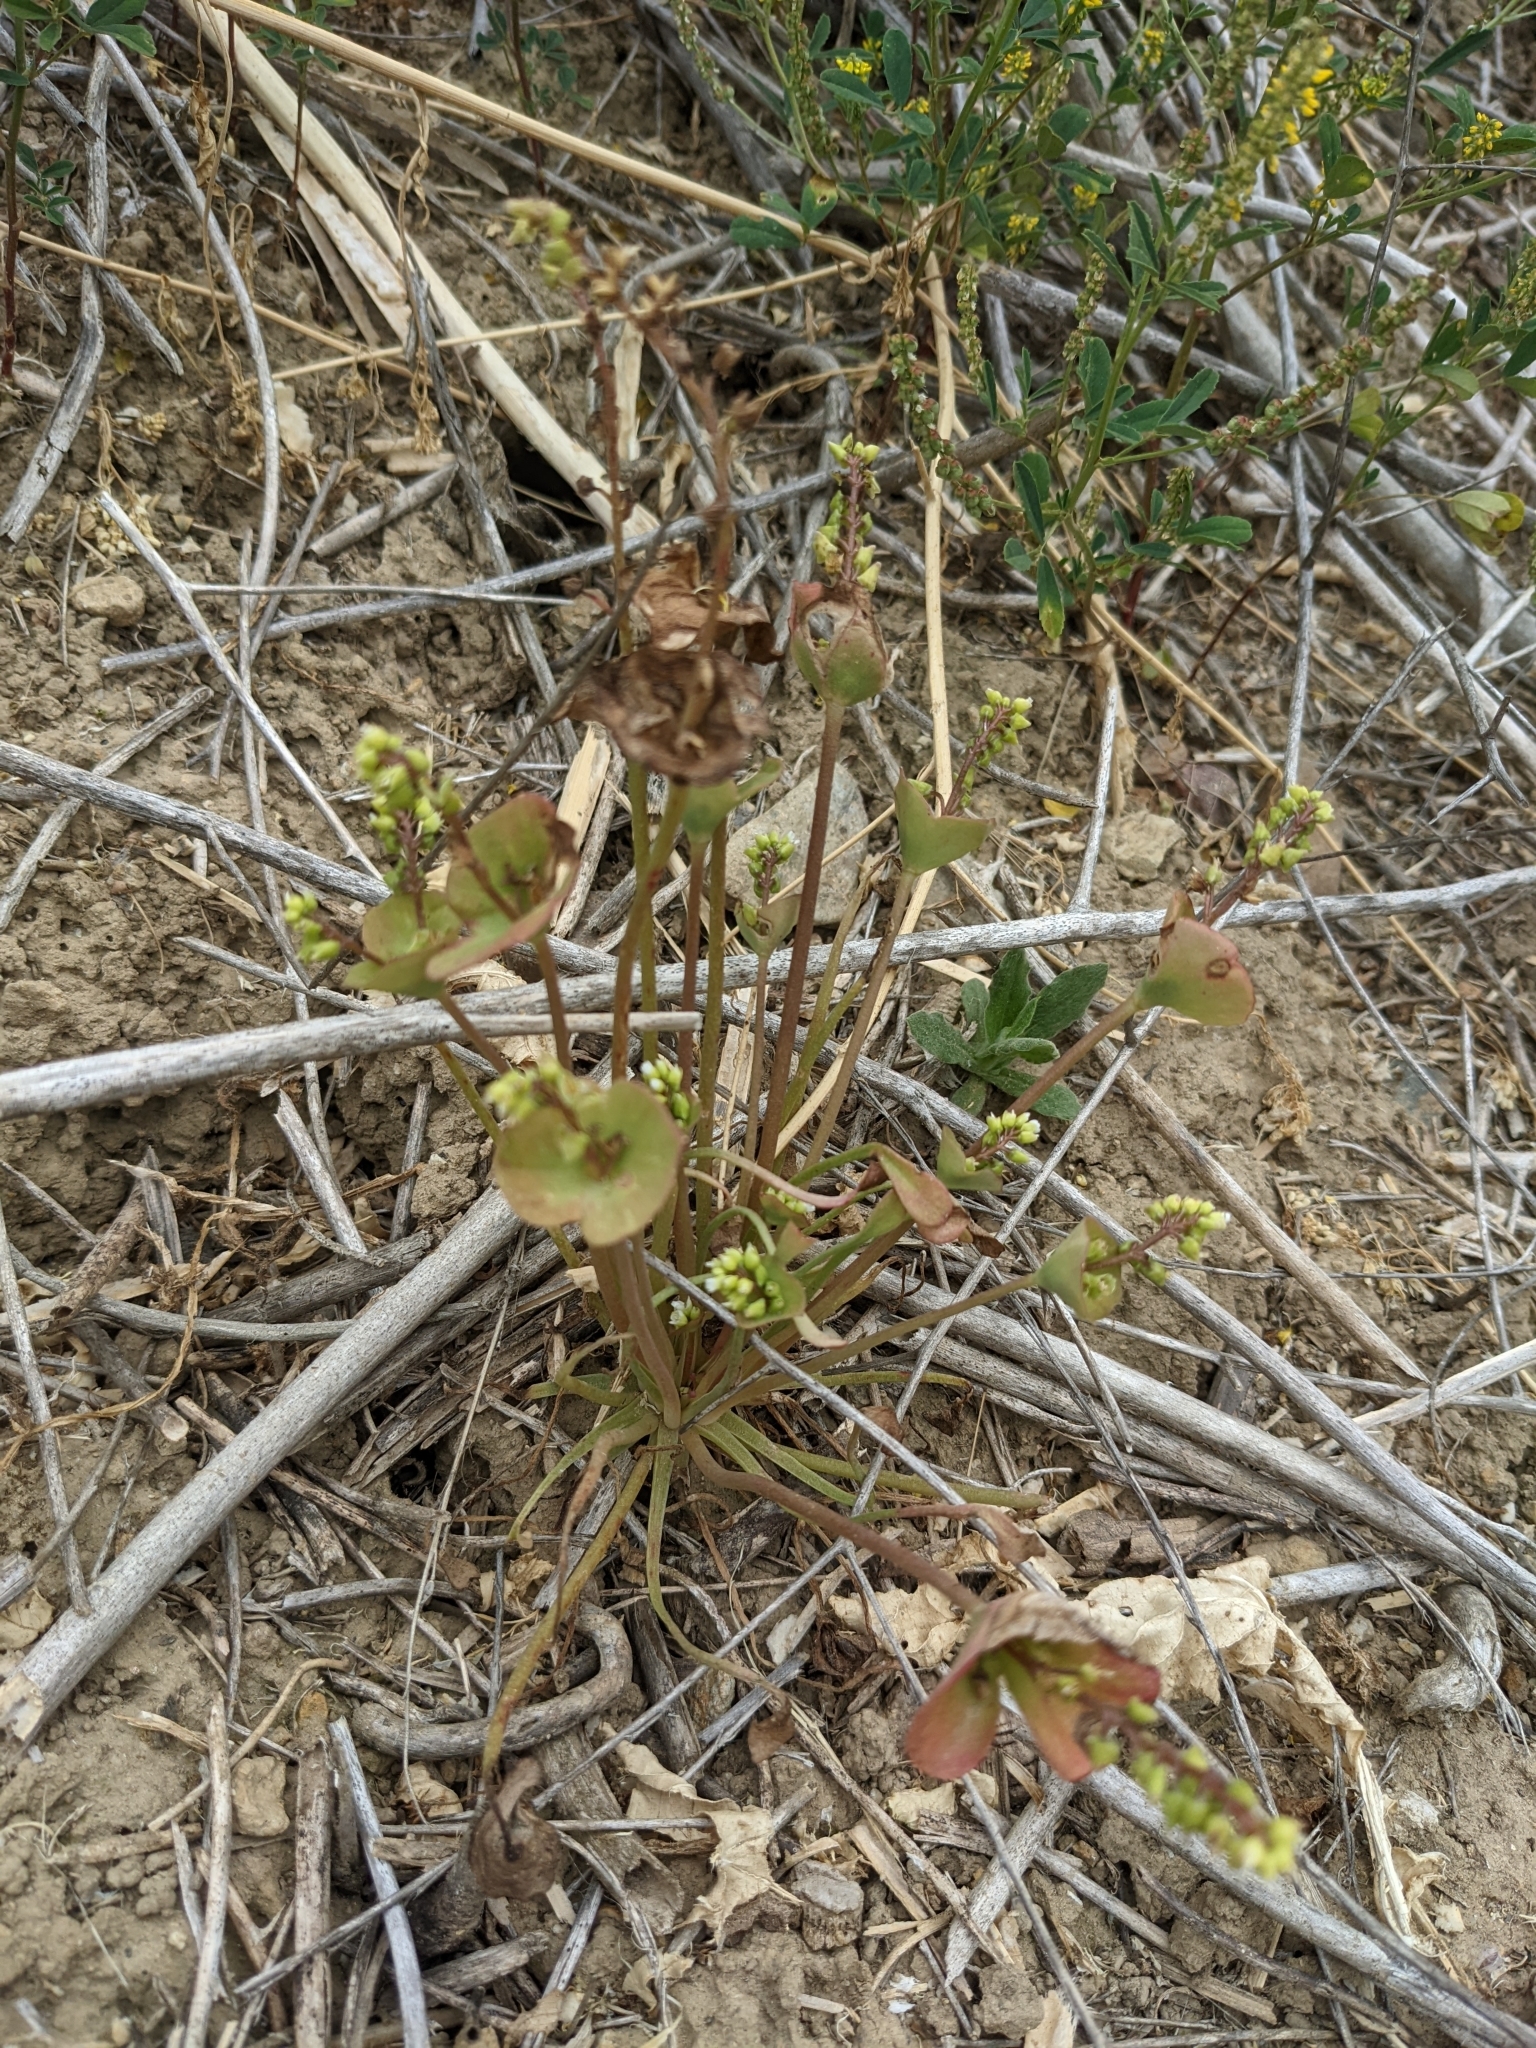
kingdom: Plantae
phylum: Tracheophyta
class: Magnoliopsida
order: Caryophyllales
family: Montiaceae
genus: Claytonia
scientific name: Claytonia perfoliata
